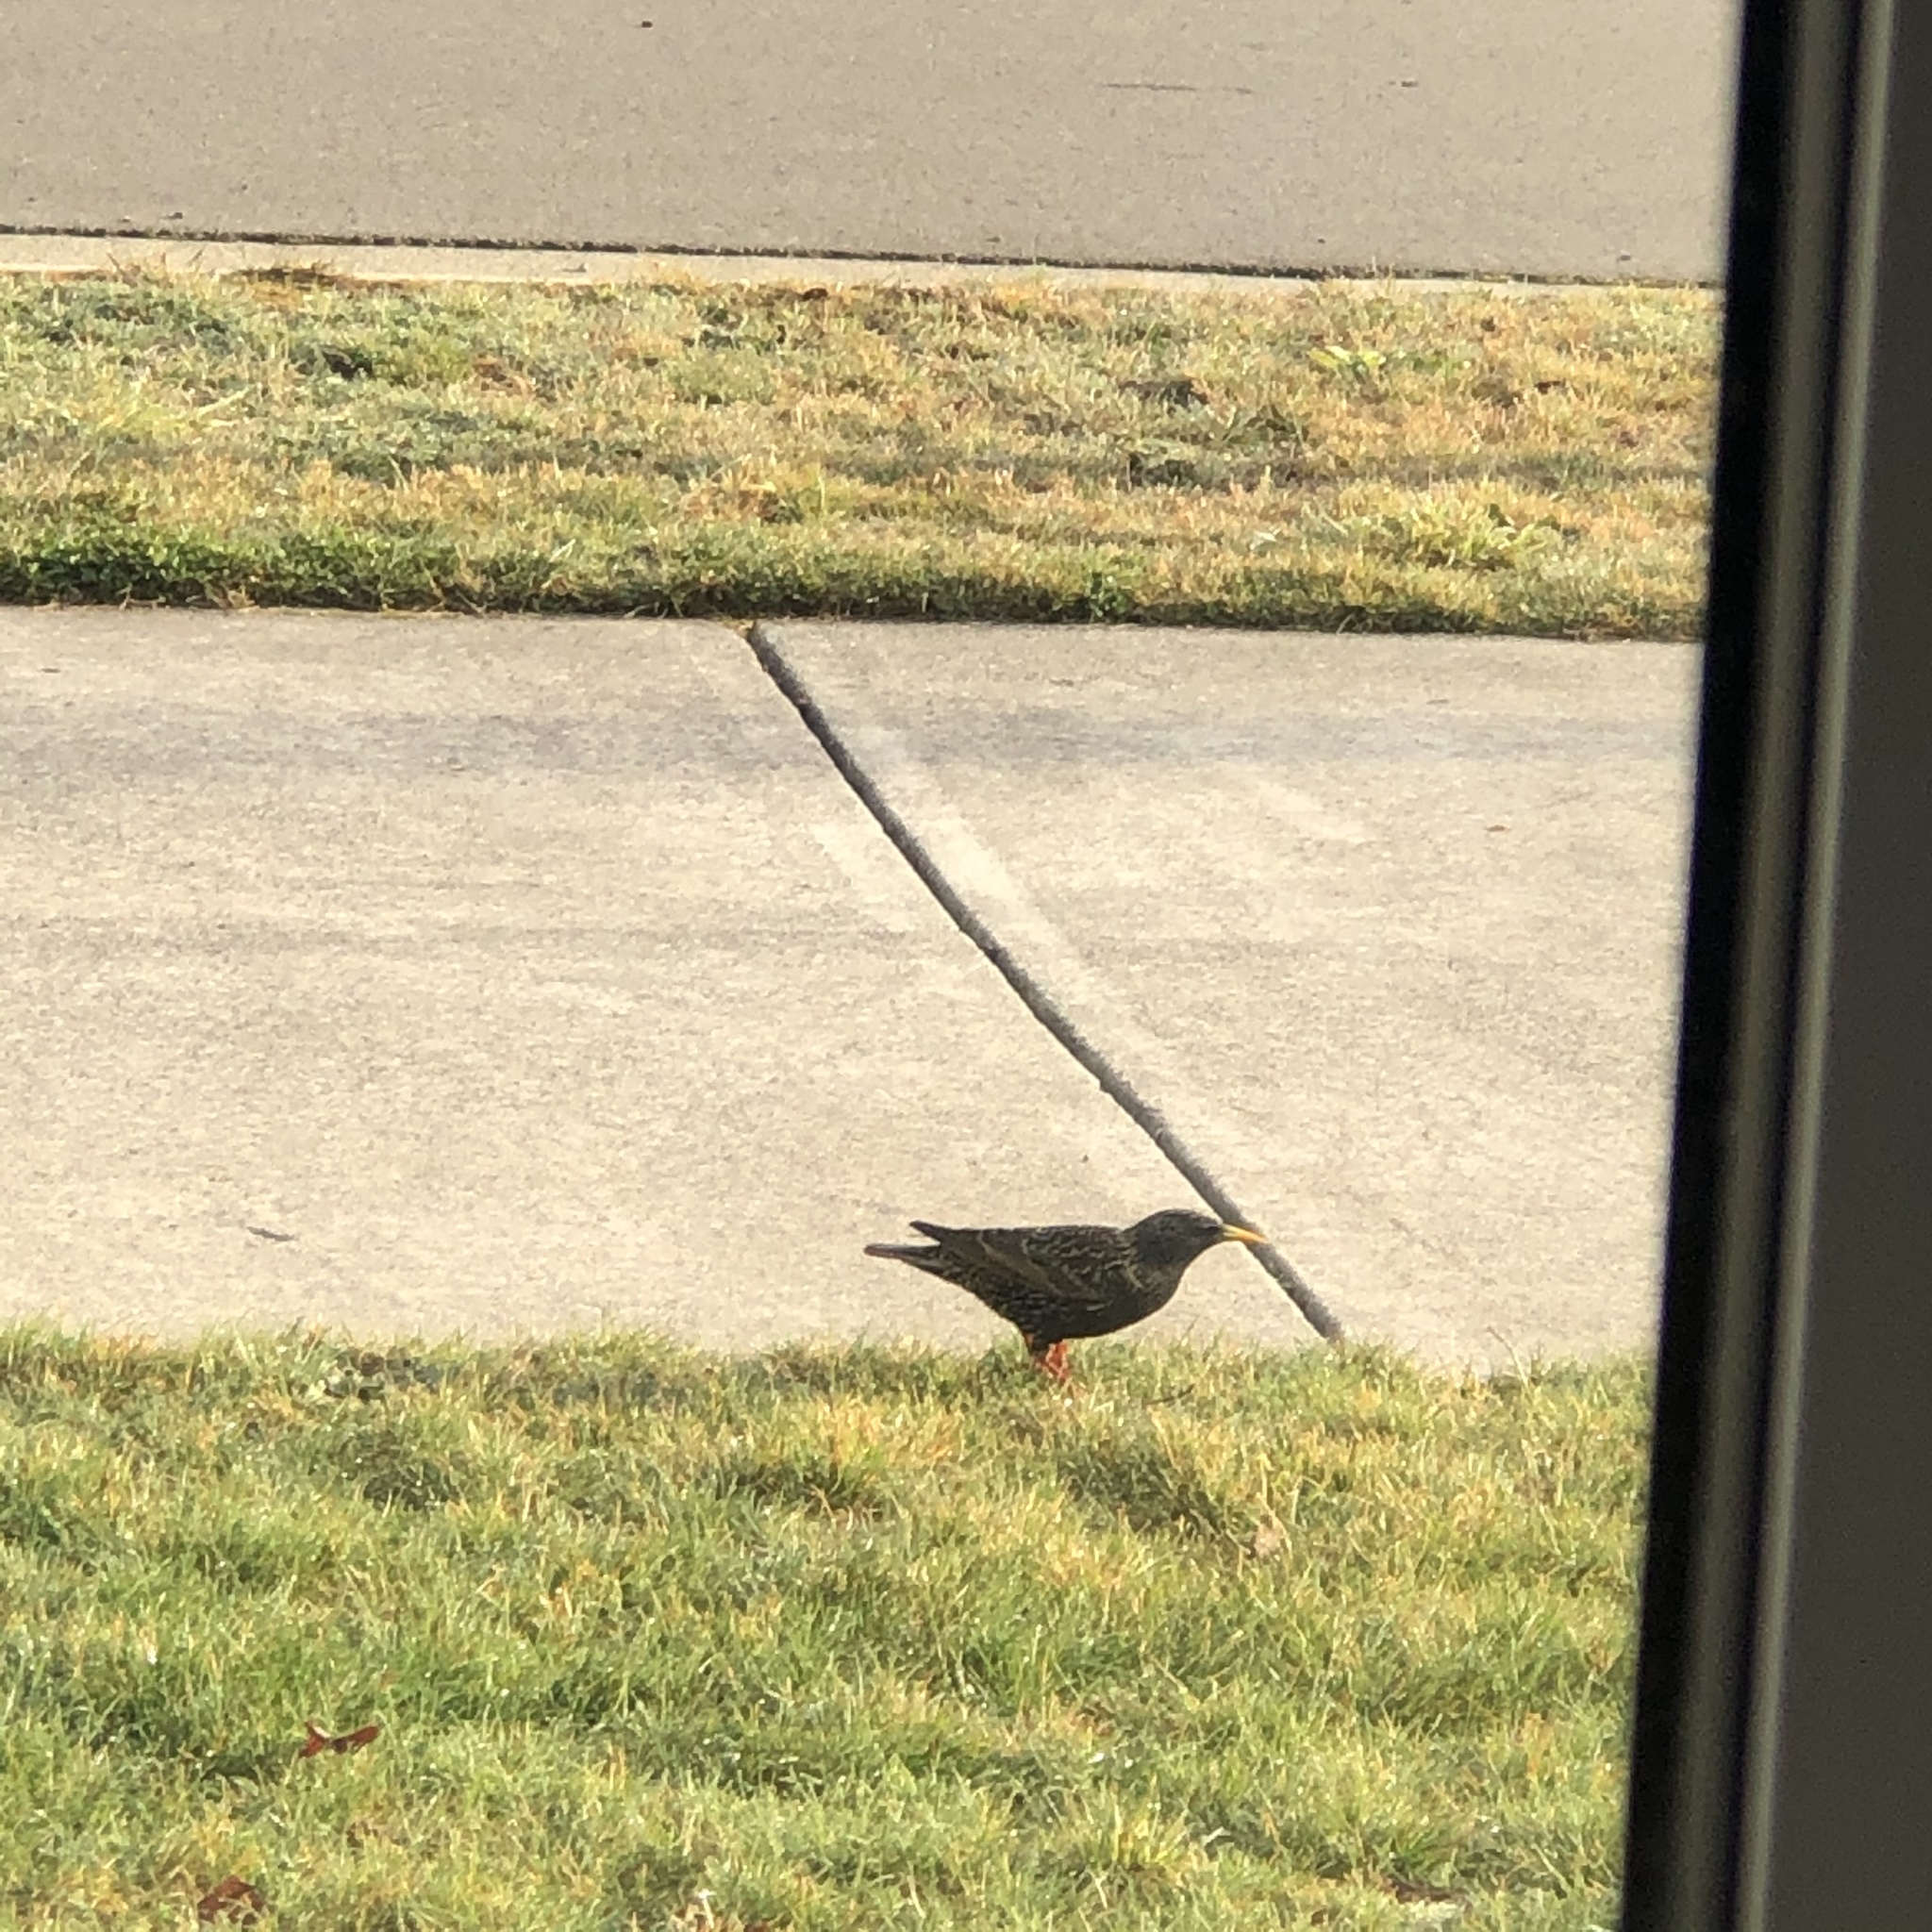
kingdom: Animalia
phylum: Chordata
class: Aves
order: Passeriformes
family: Sturnidae
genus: Sturnus
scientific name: Sturnus vulgaris
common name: Common starling
